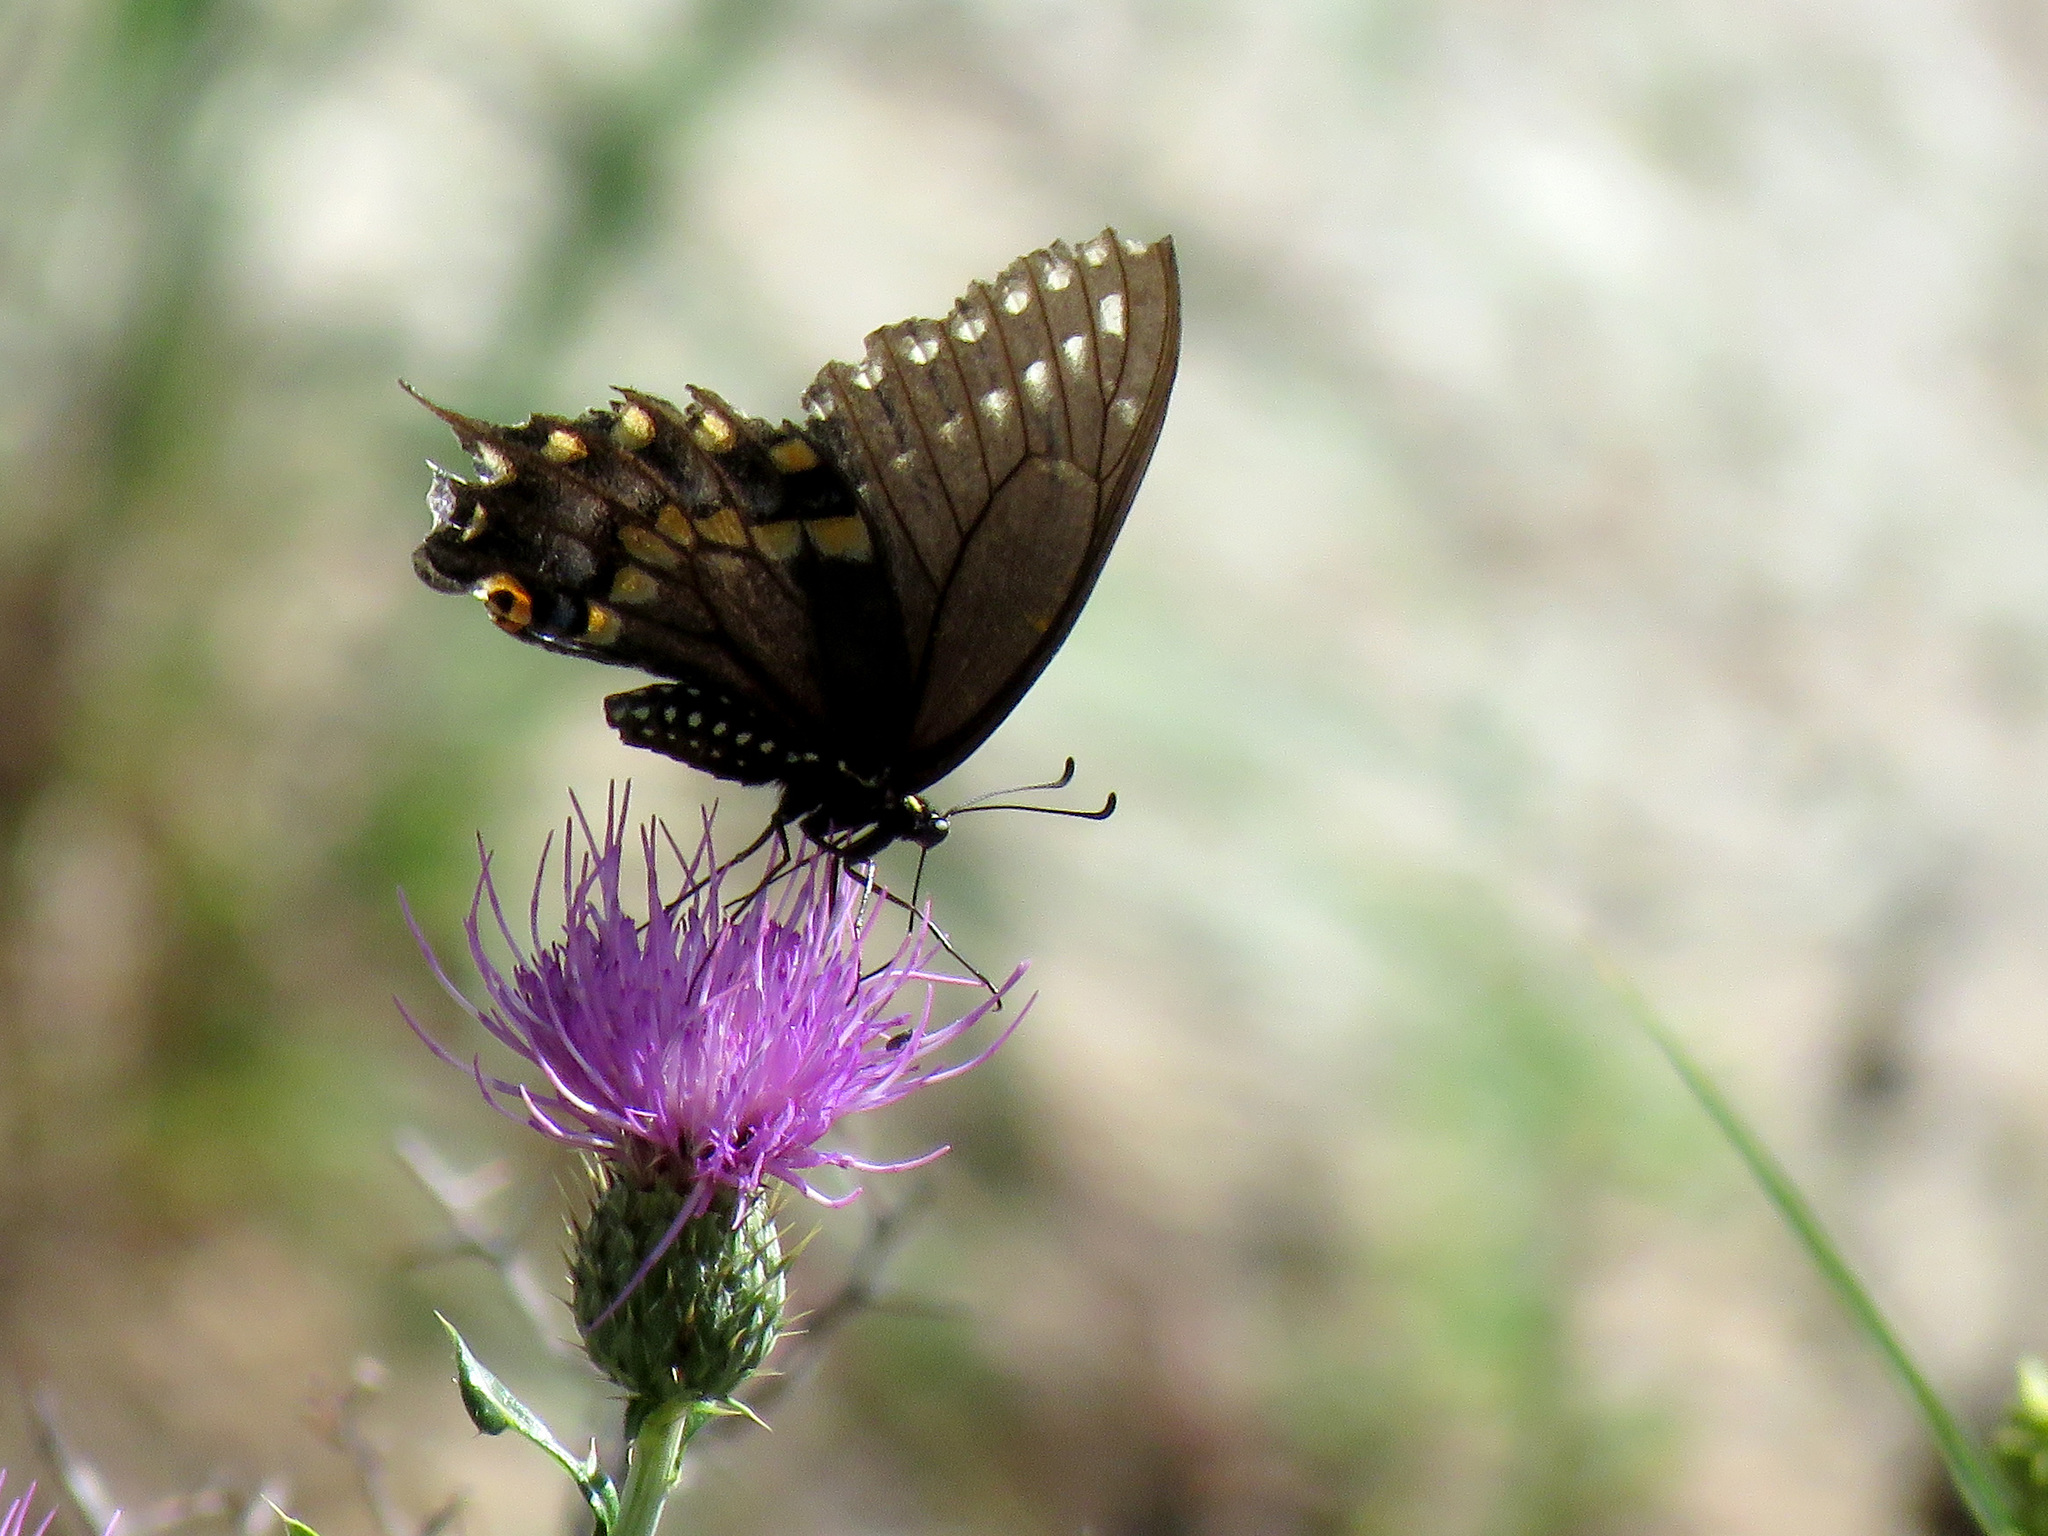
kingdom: Animalia
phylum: Arthropoda
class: Insecta
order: Lepidoptera
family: Papilionidae
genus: Papilio
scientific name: Papilio polyxenes
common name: Black swallowtail
